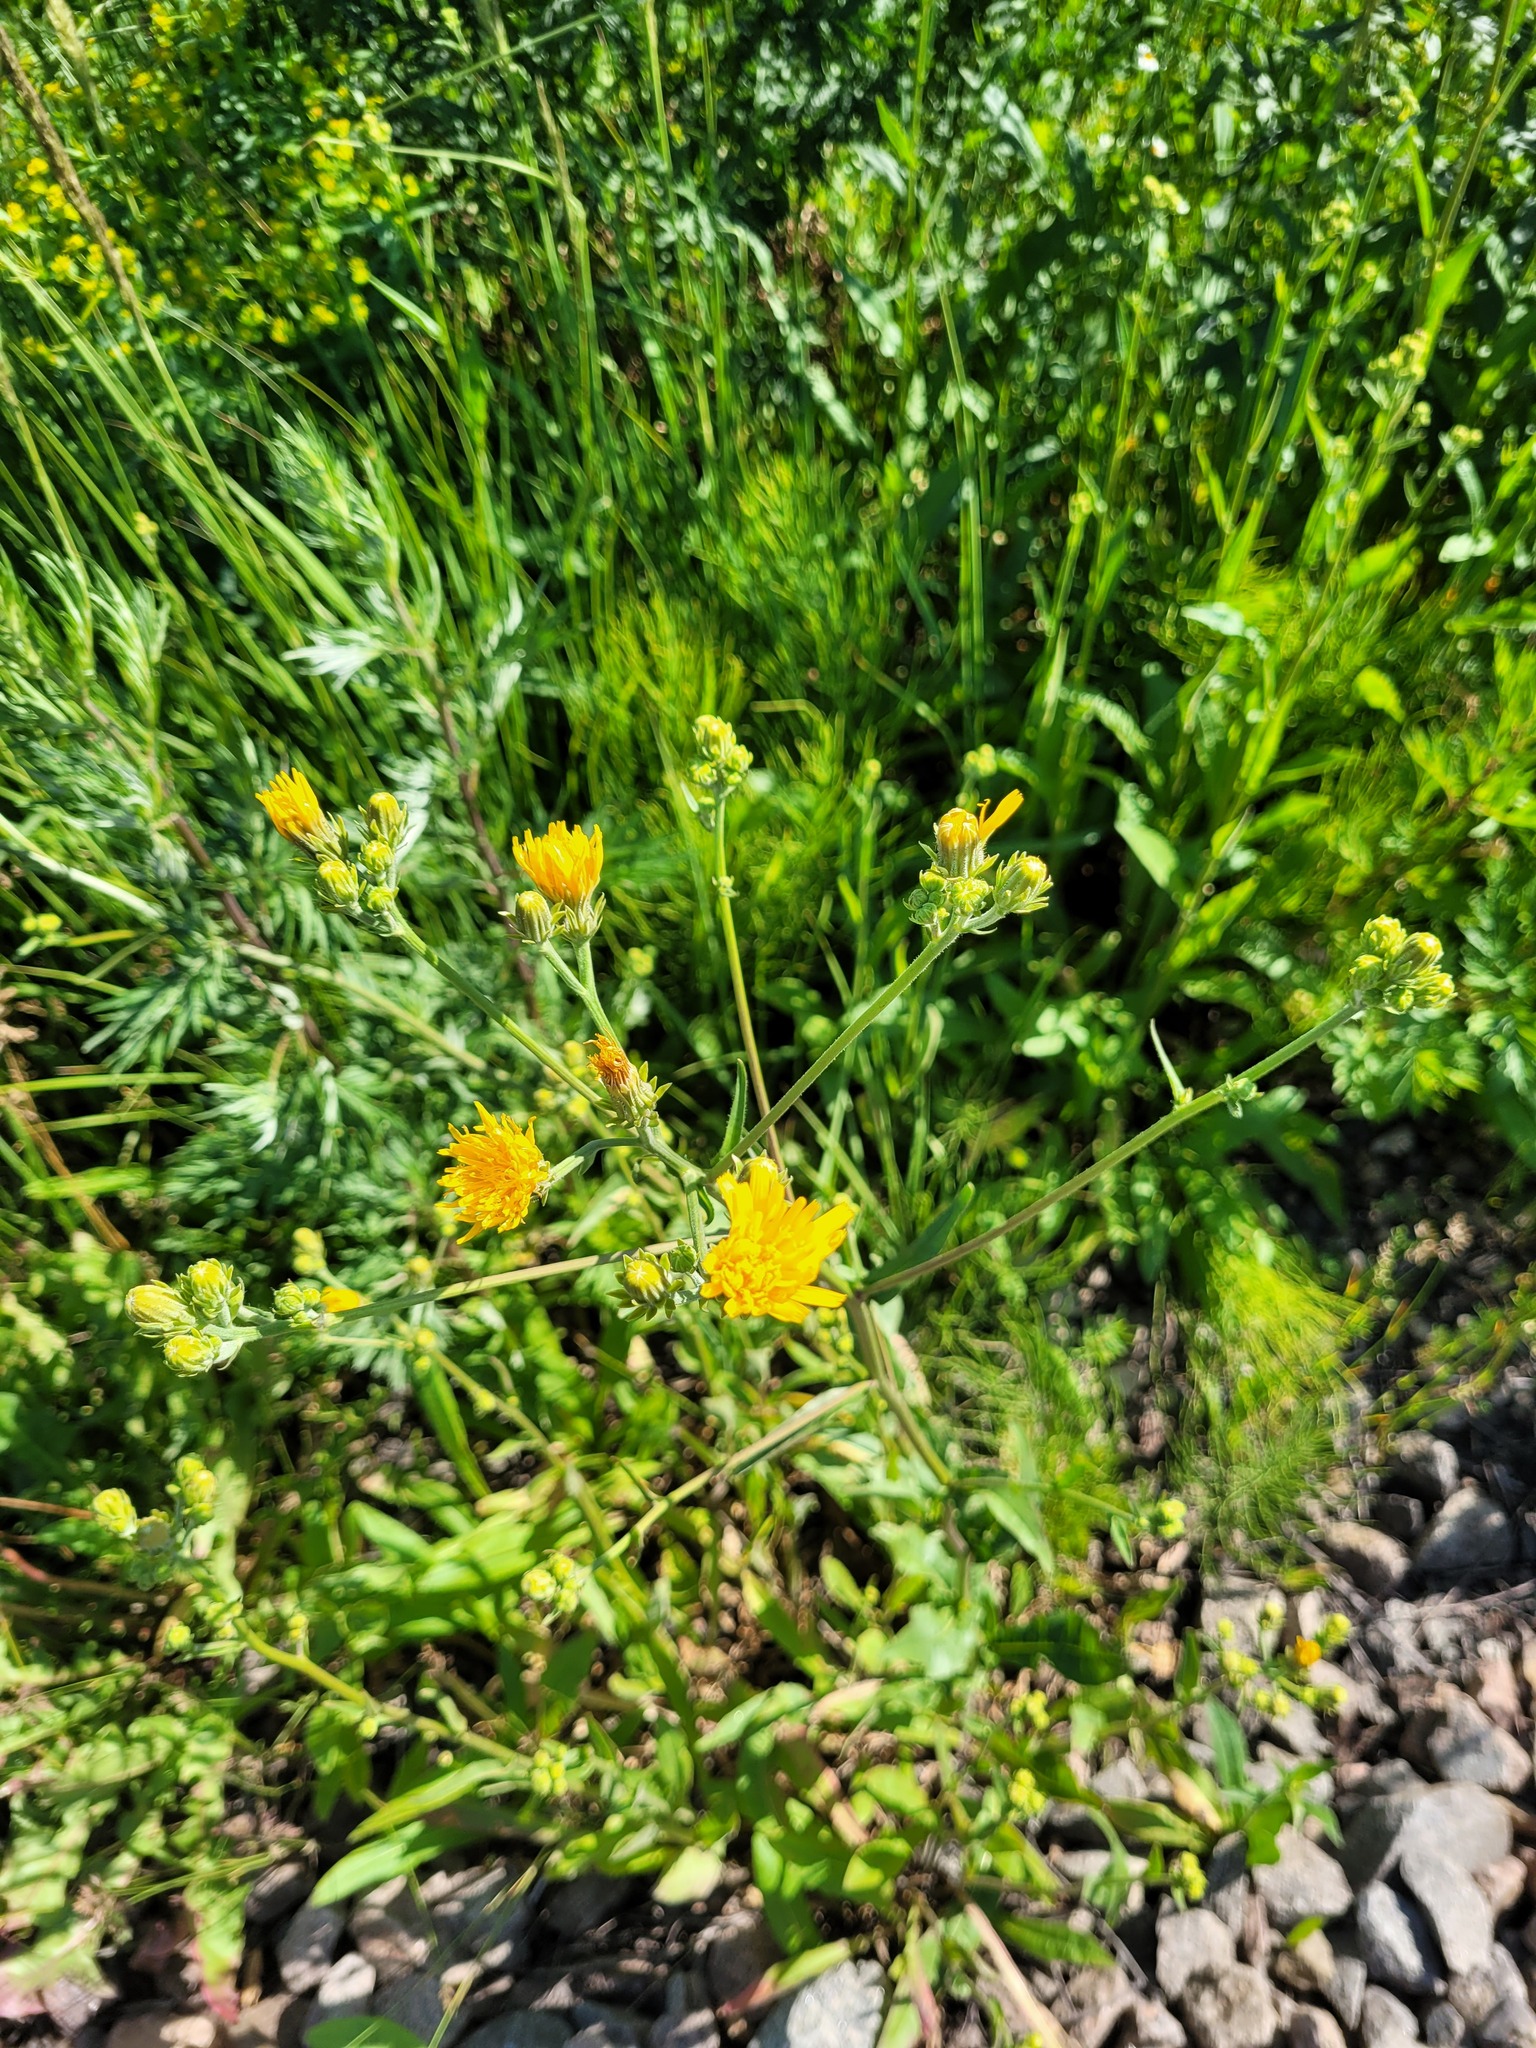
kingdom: Plantae
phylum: Tracheophyta
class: Magnoliopsida
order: Asterales
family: Asteraceae
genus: Picris
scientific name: Picris hieracioides
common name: Hawkweed oxtongue
